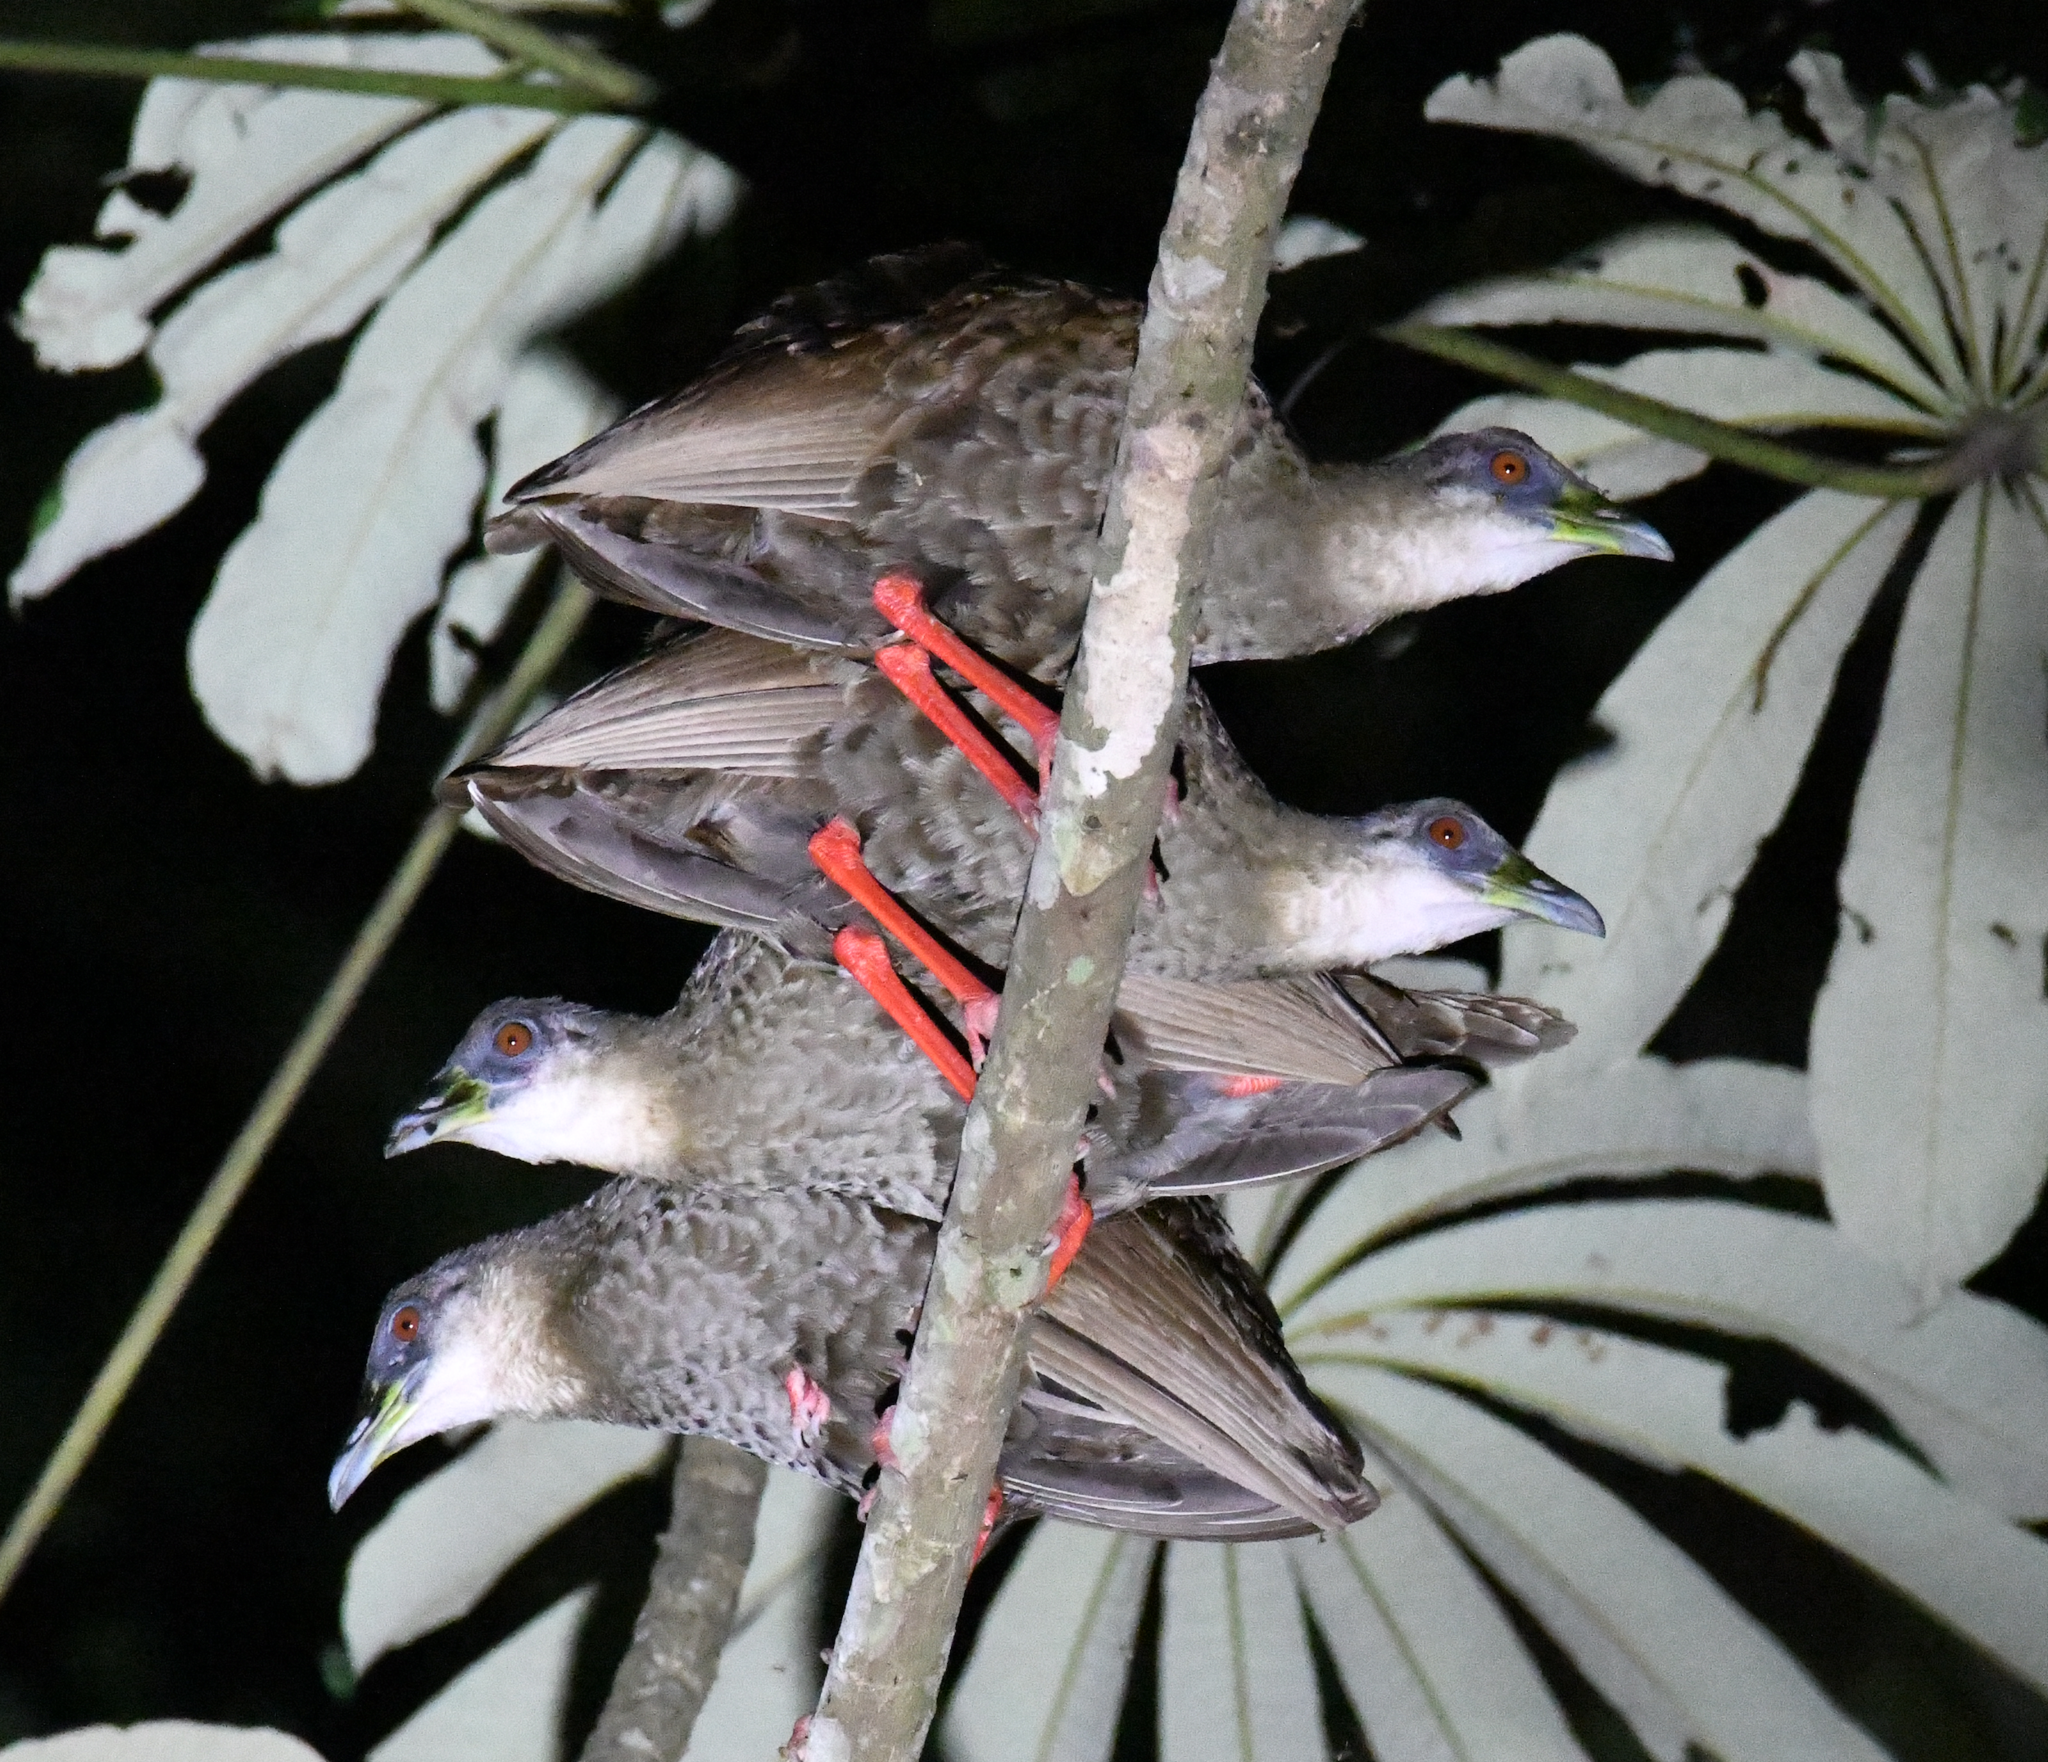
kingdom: Animalia
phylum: Chordata
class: Aves
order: Gruiformes
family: Rallidae
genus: Himantornis
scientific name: Himantornis haematopus
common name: Nkulengu rail
